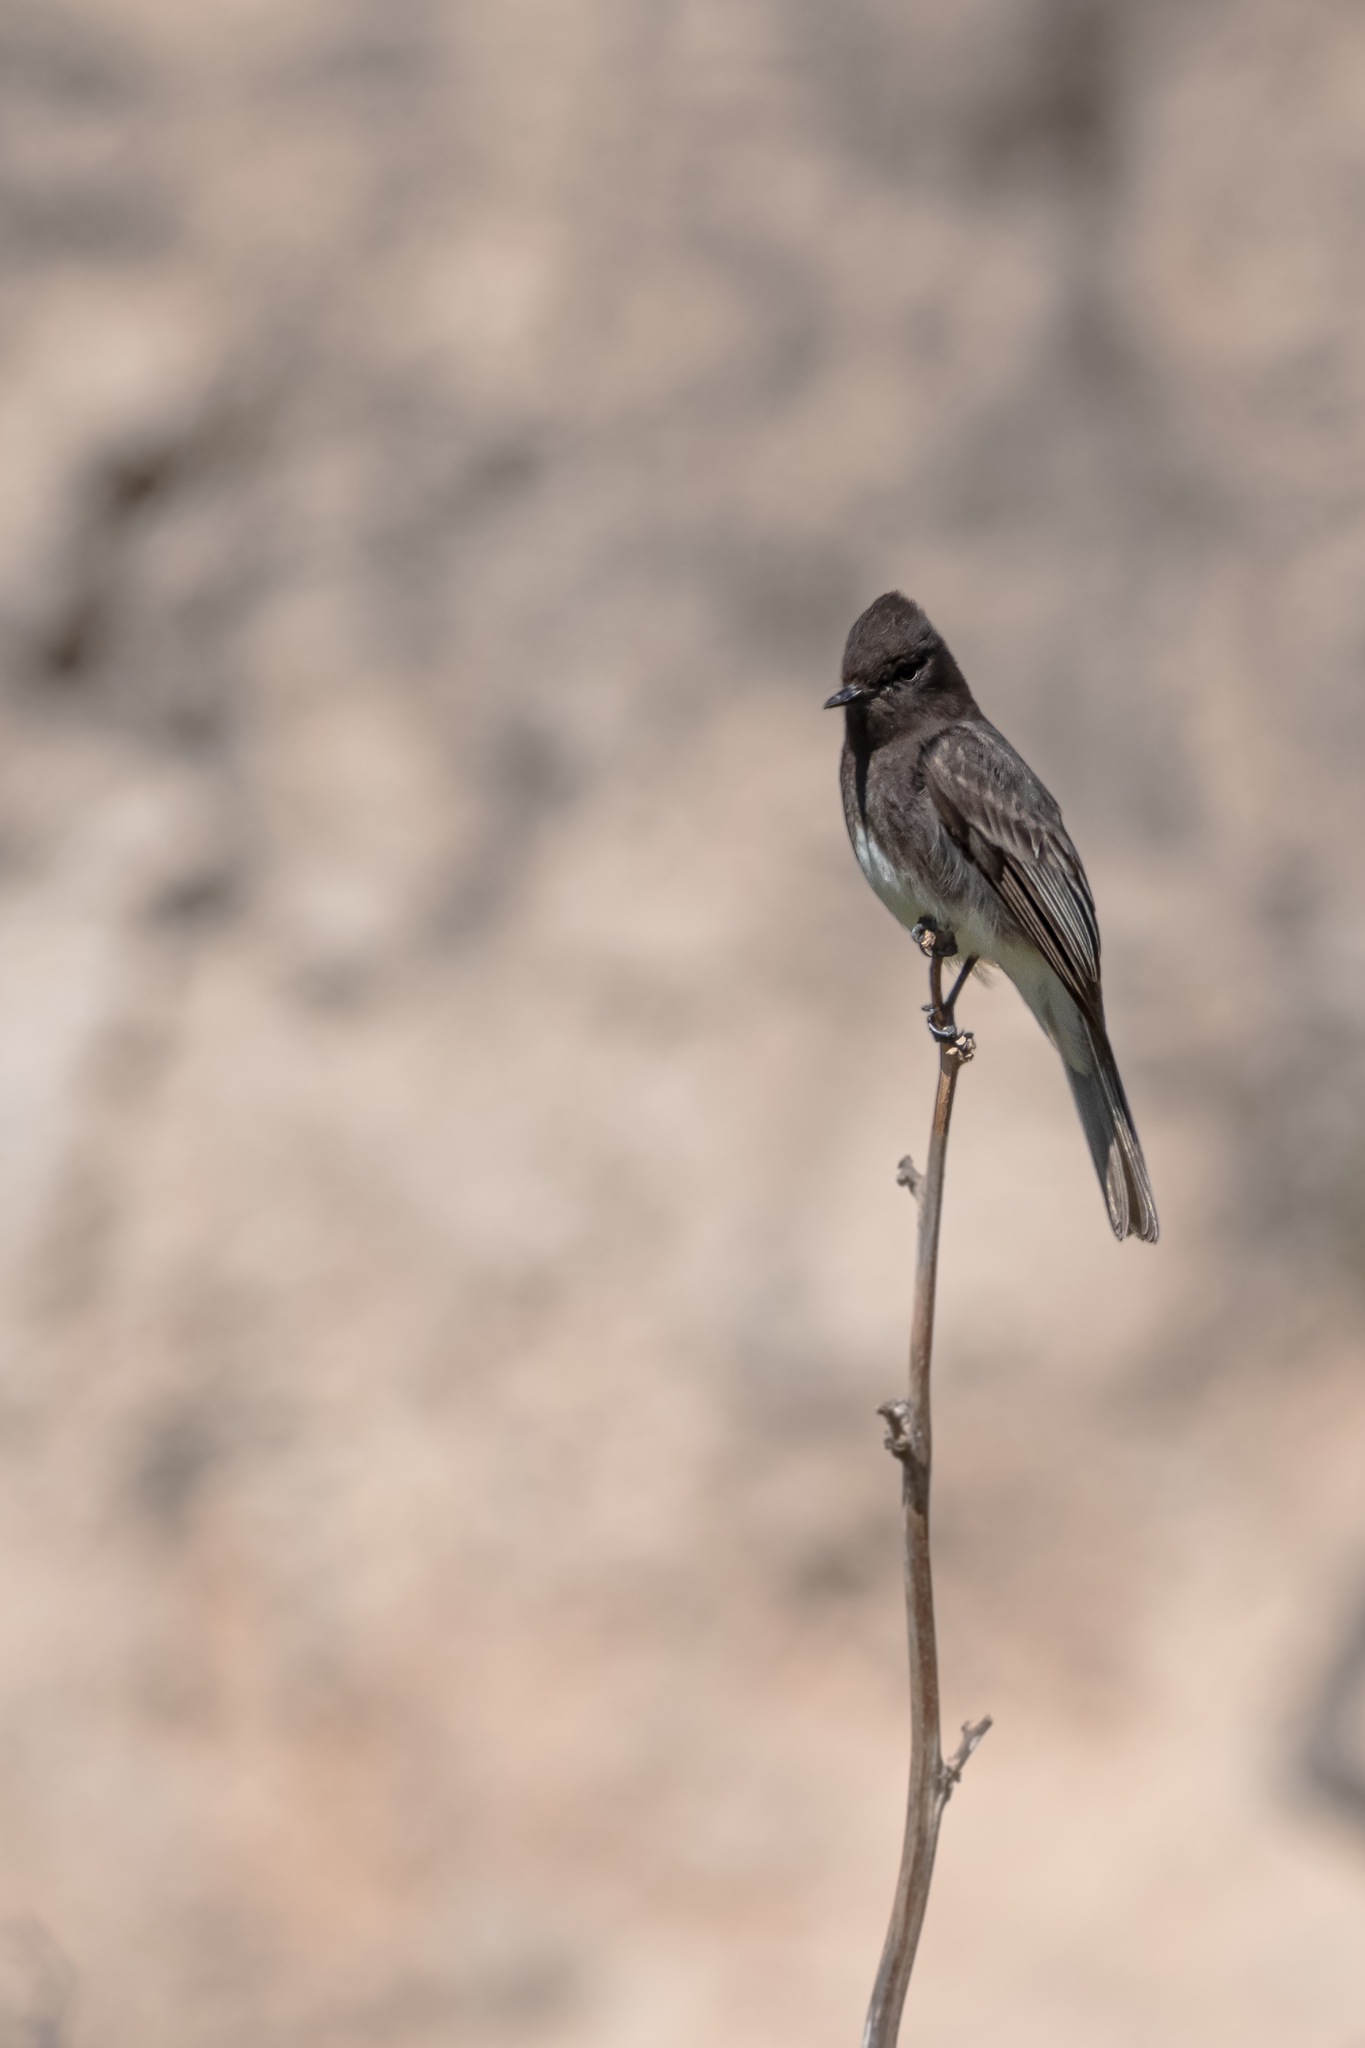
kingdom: Animalia
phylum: Chordata
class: Aves
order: Passeriformes
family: Tyrannidae
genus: Sayornis
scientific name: Sayornis nigricans
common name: Black phoebe
